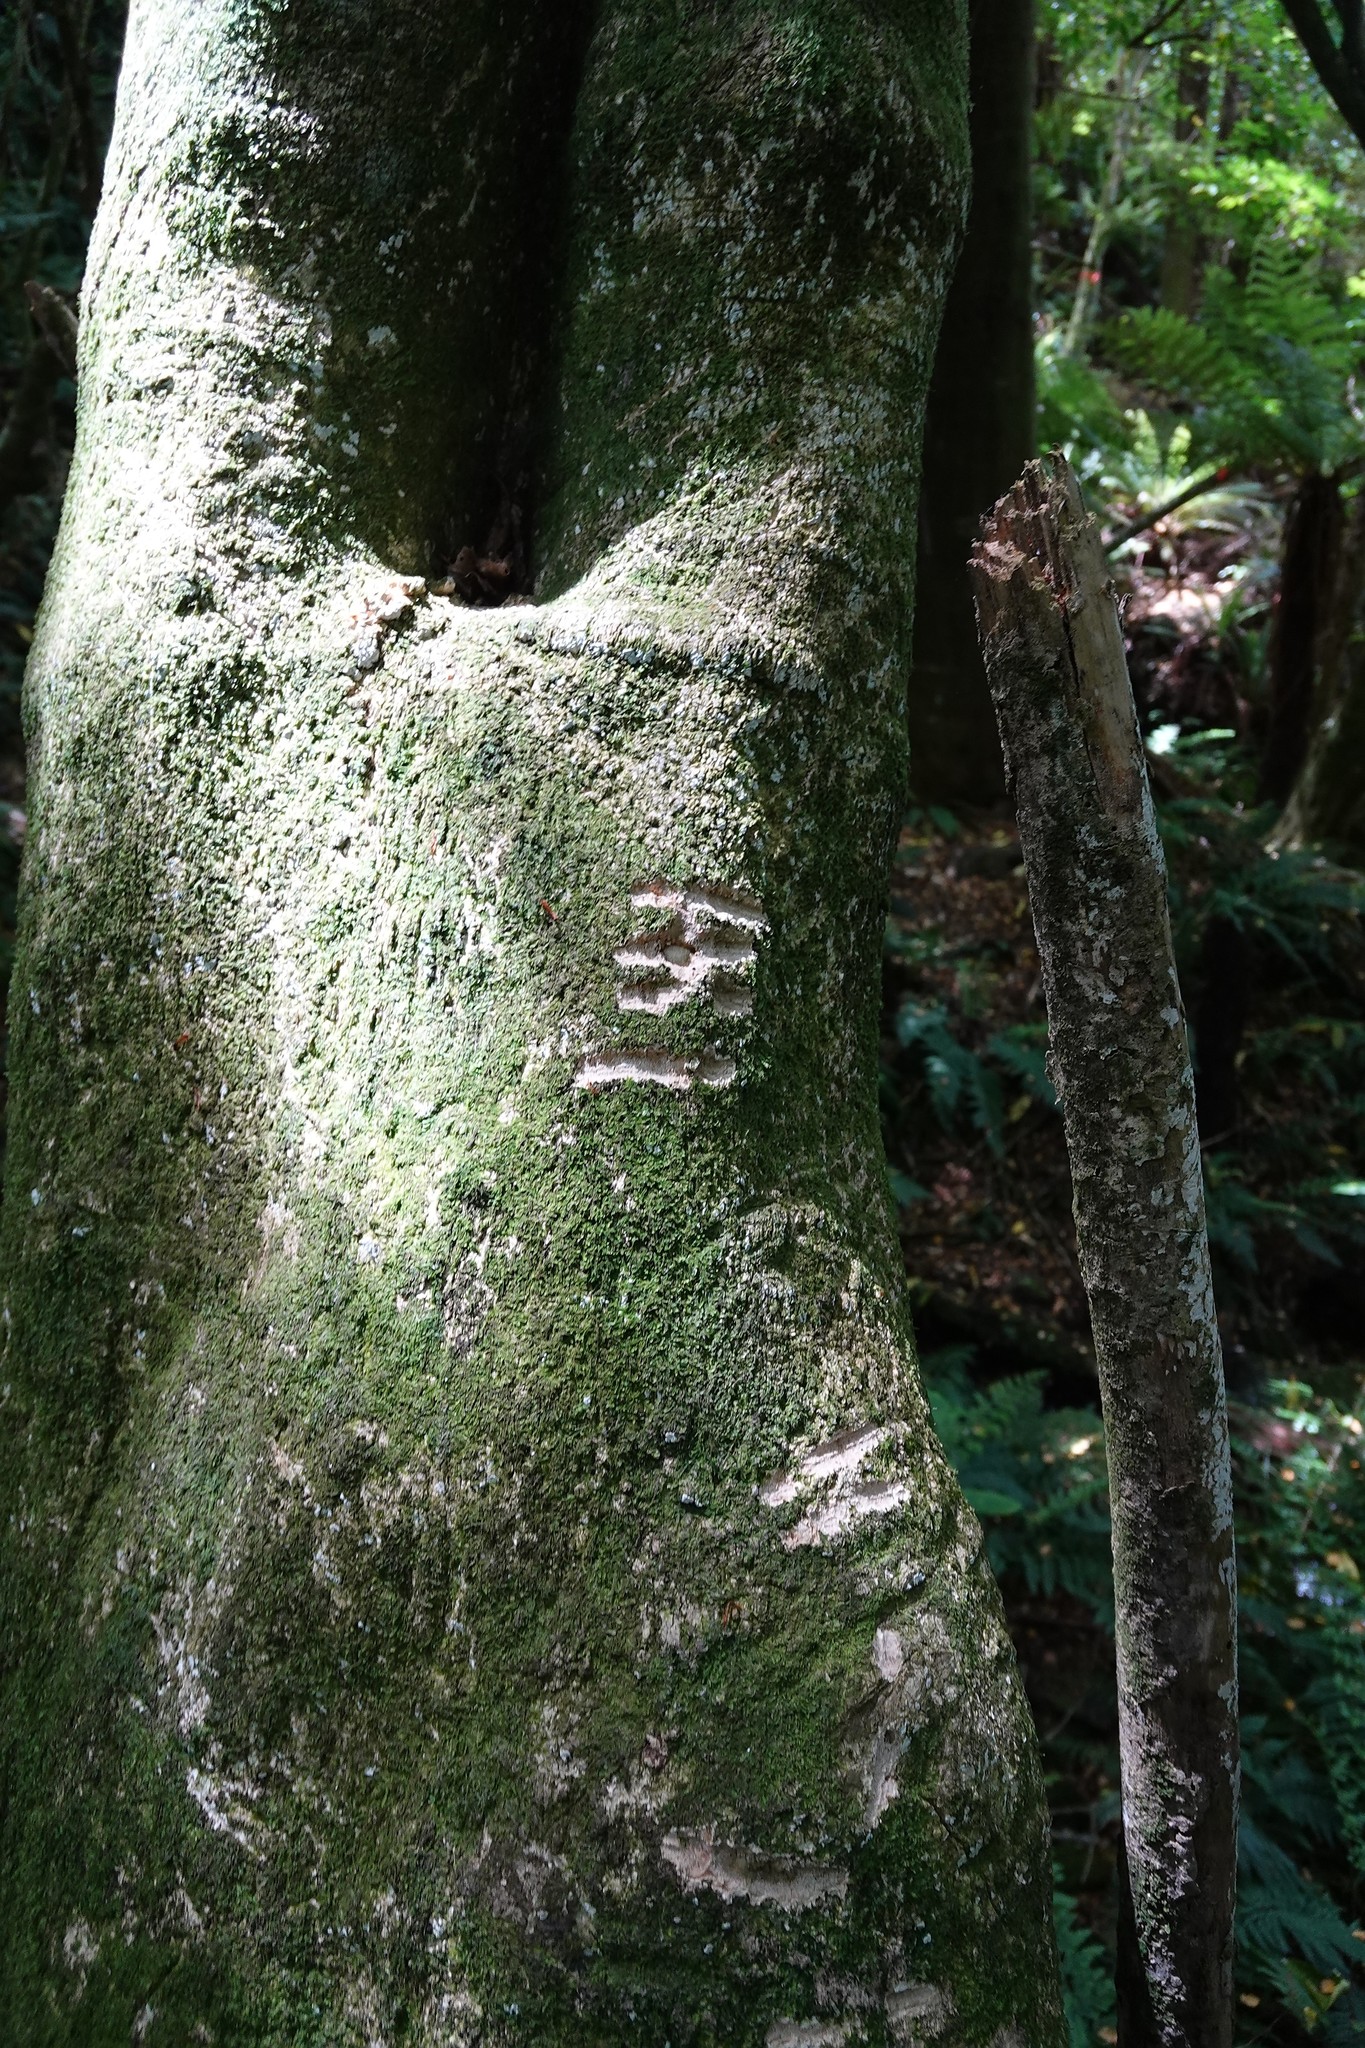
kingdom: Animalia
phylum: Chordata
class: Mammalia
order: Diprotodontia
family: Phalangeridae
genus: Trichosurus
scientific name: Trichosurus vulpecula
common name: Common brushtail
